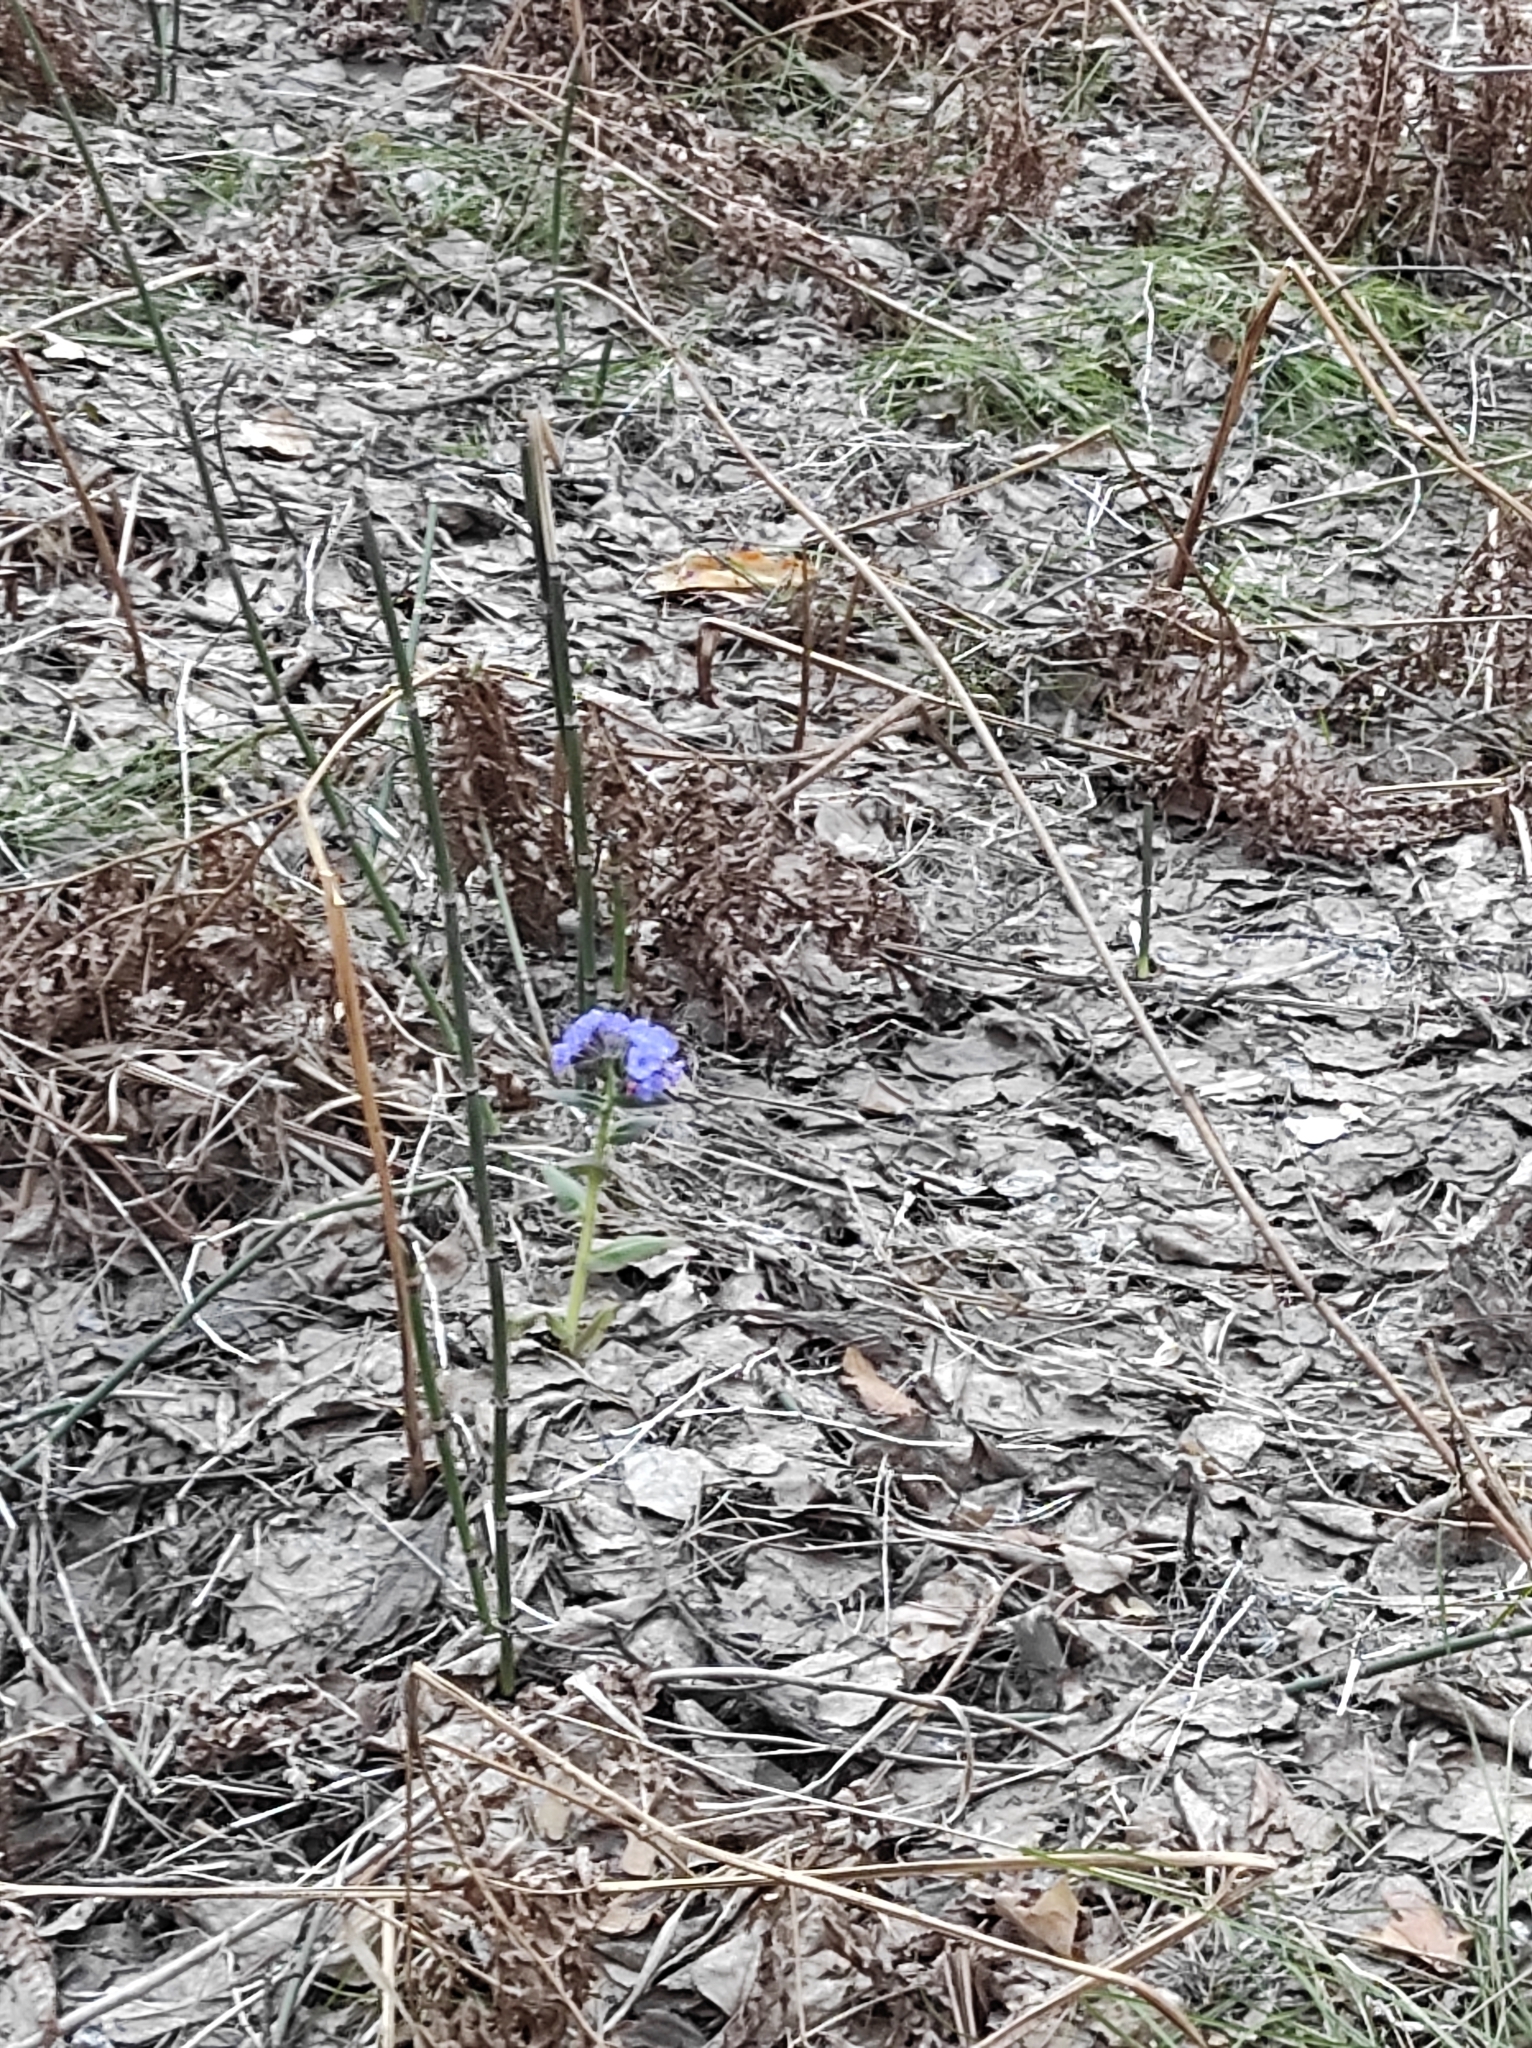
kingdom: Plantae
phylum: Tracheophyta
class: Magnoliopsida
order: Boraginales
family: Boraginaceae
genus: Pulmonaria
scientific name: Pulmonaria mollis
